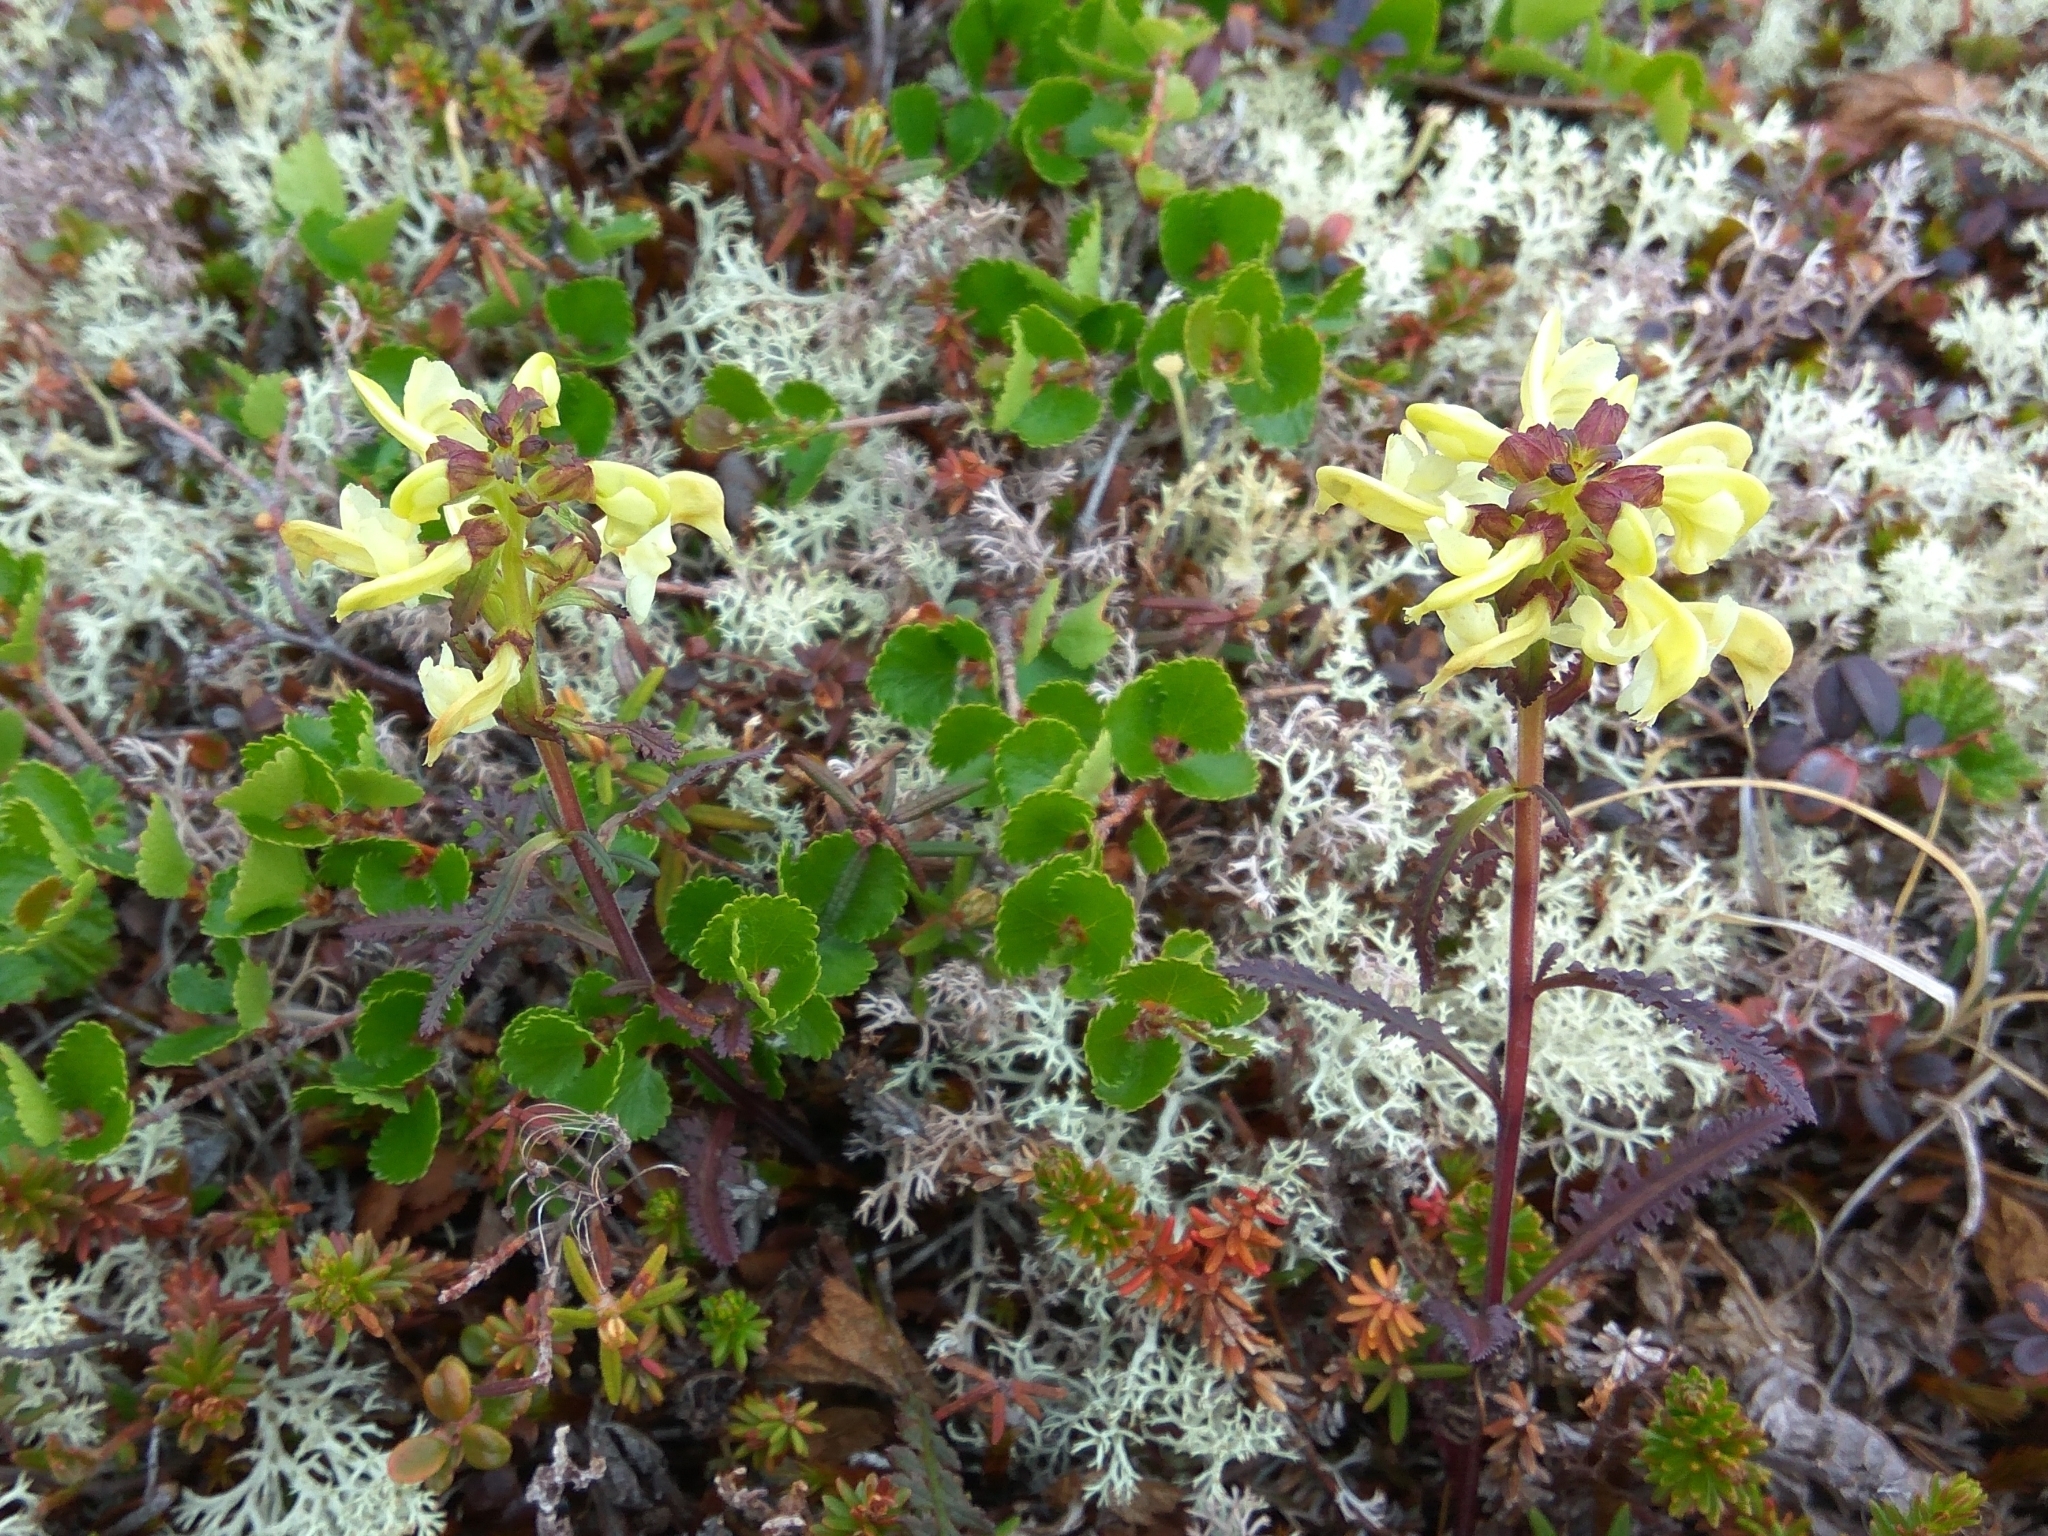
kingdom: Plantae
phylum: Tracheophyta
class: Magnoliopsida
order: Lamiales
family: Orobanchaceae
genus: Pedicularis
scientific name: Pedicularis lapponica
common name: Lapland lousewort
